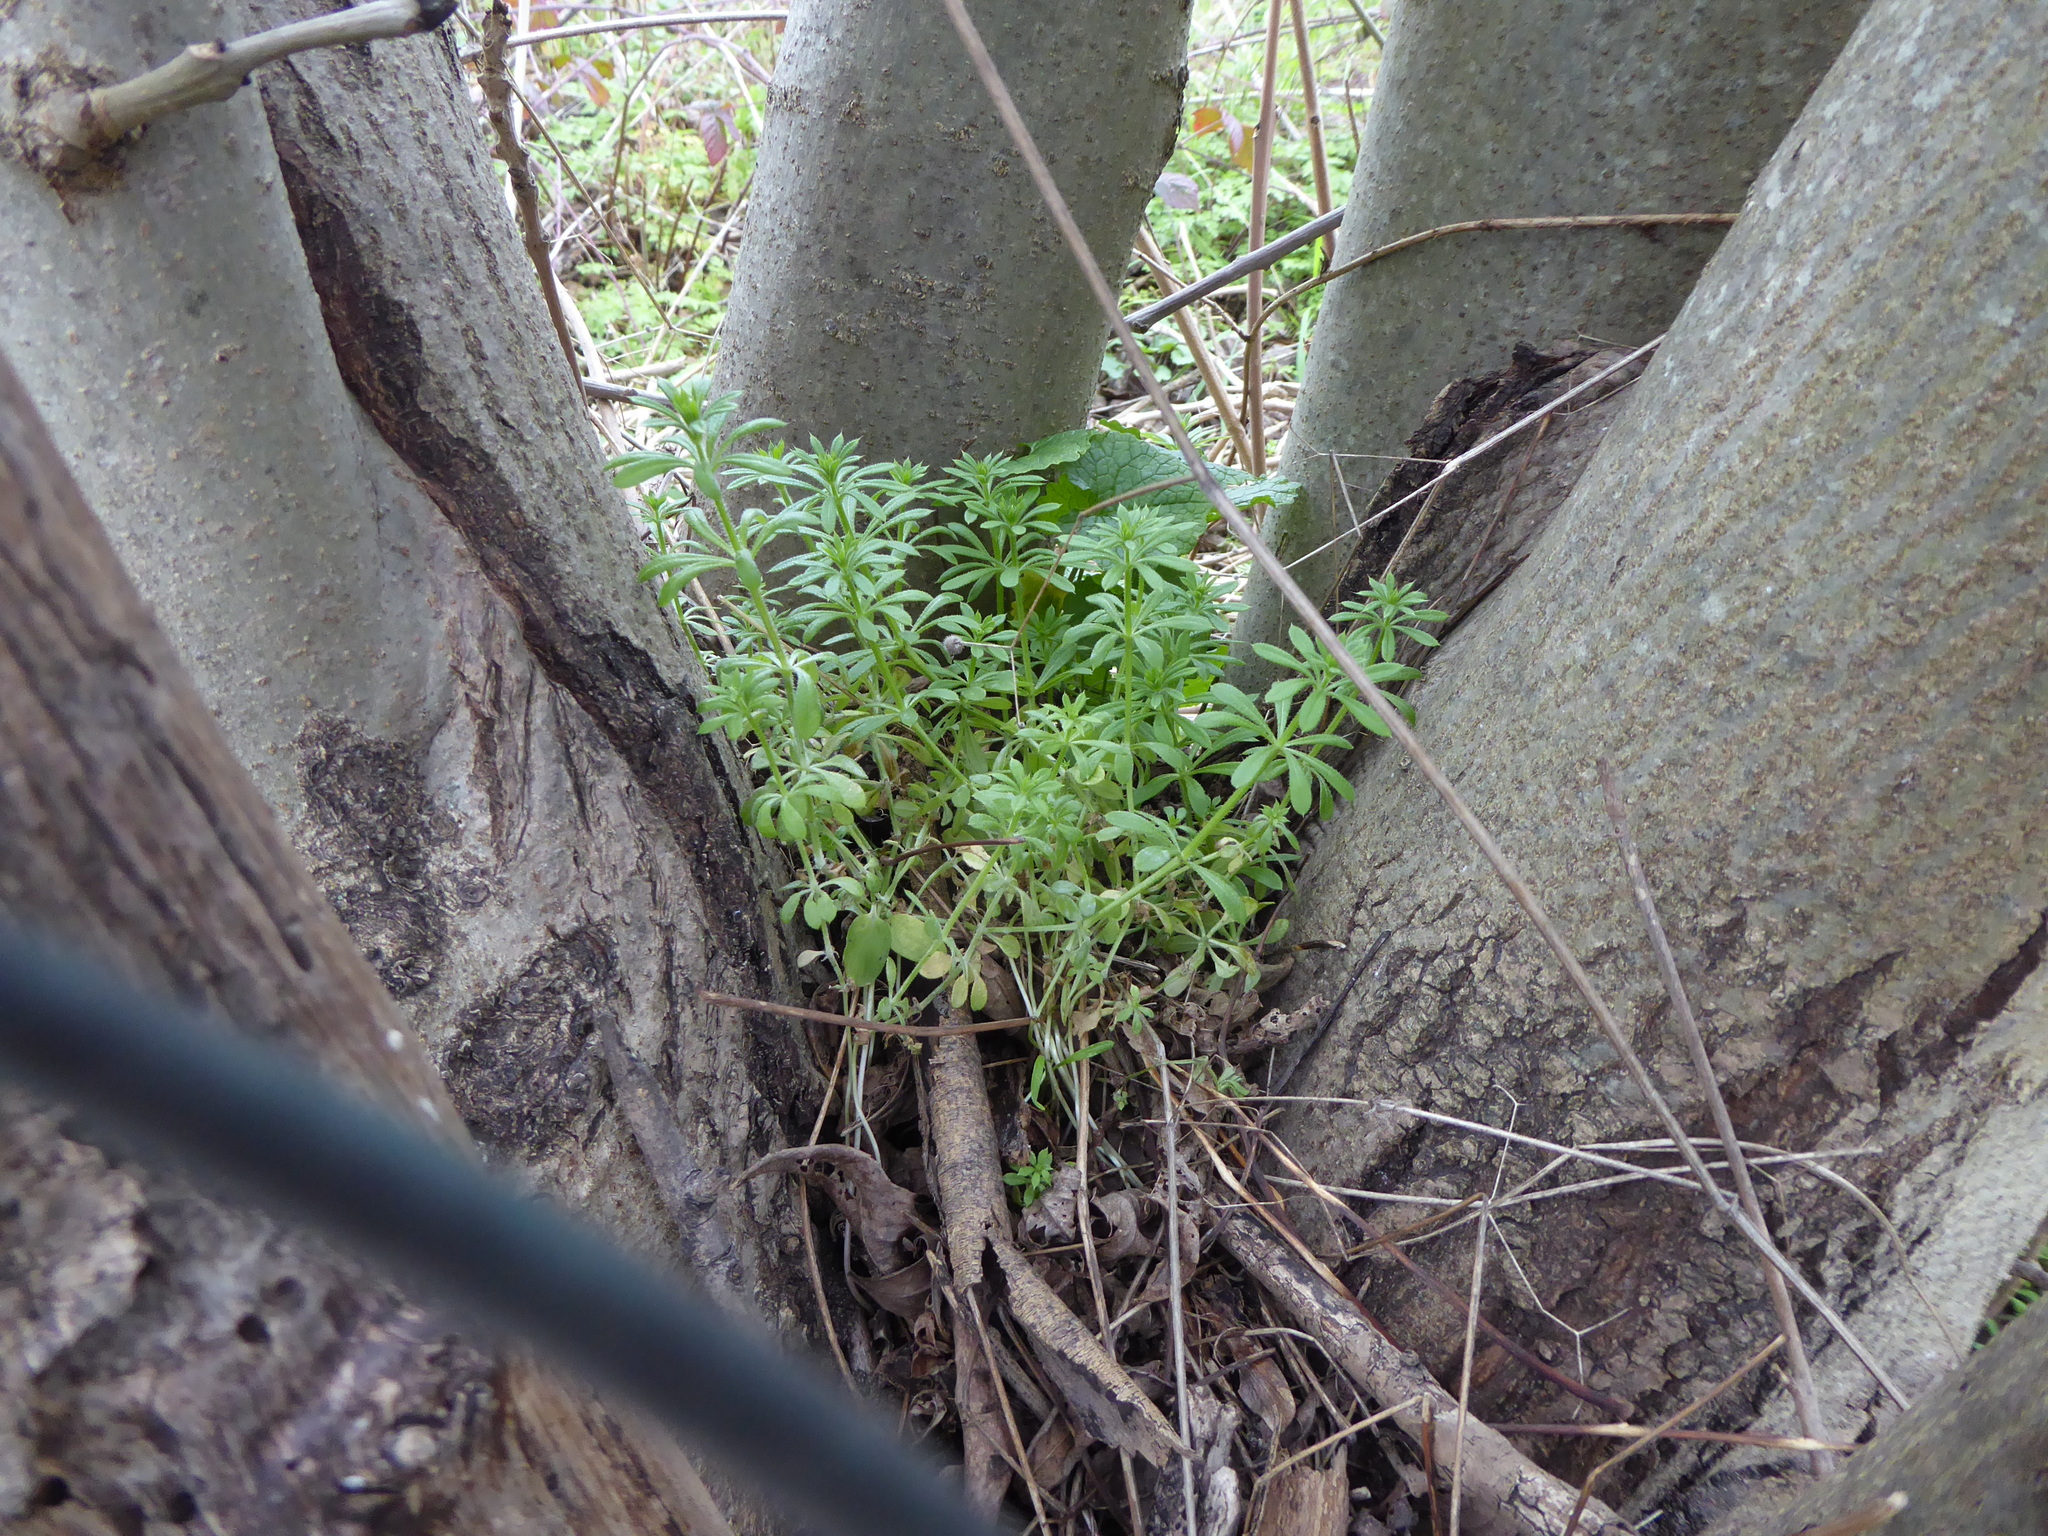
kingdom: Plantae
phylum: Tracheophyta
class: Magnoliopsida
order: Gentianales
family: Rubiaceae
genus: Galium
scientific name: Galium aparine
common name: Cleavers
